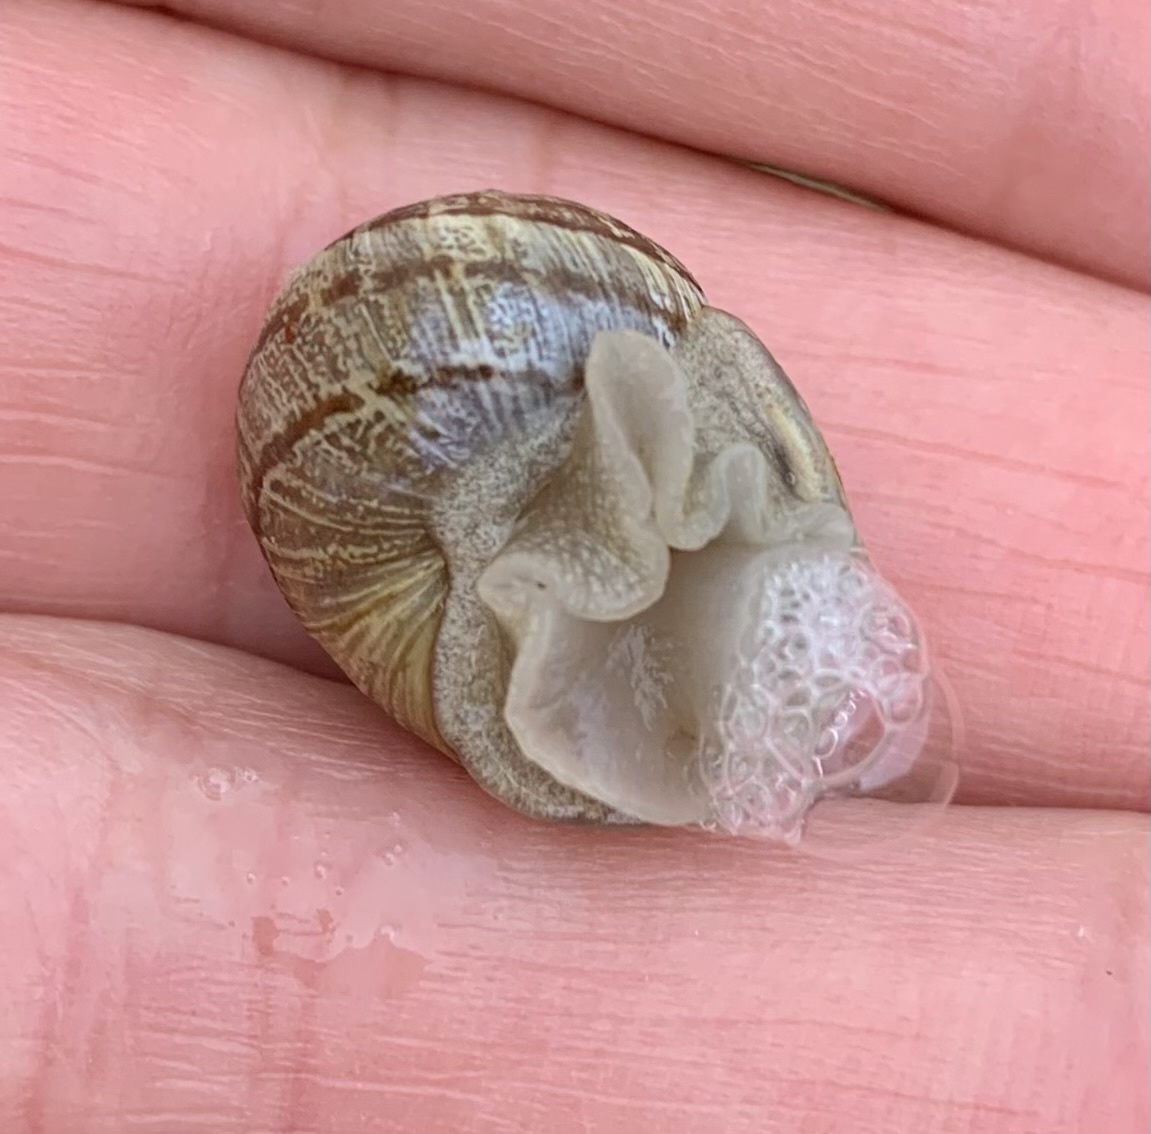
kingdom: Animalia
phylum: Mollusca
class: Gastropoda
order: Stylommatophora
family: Helicidae
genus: Cornu
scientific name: Cornu aspersum
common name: Brown garden snail
